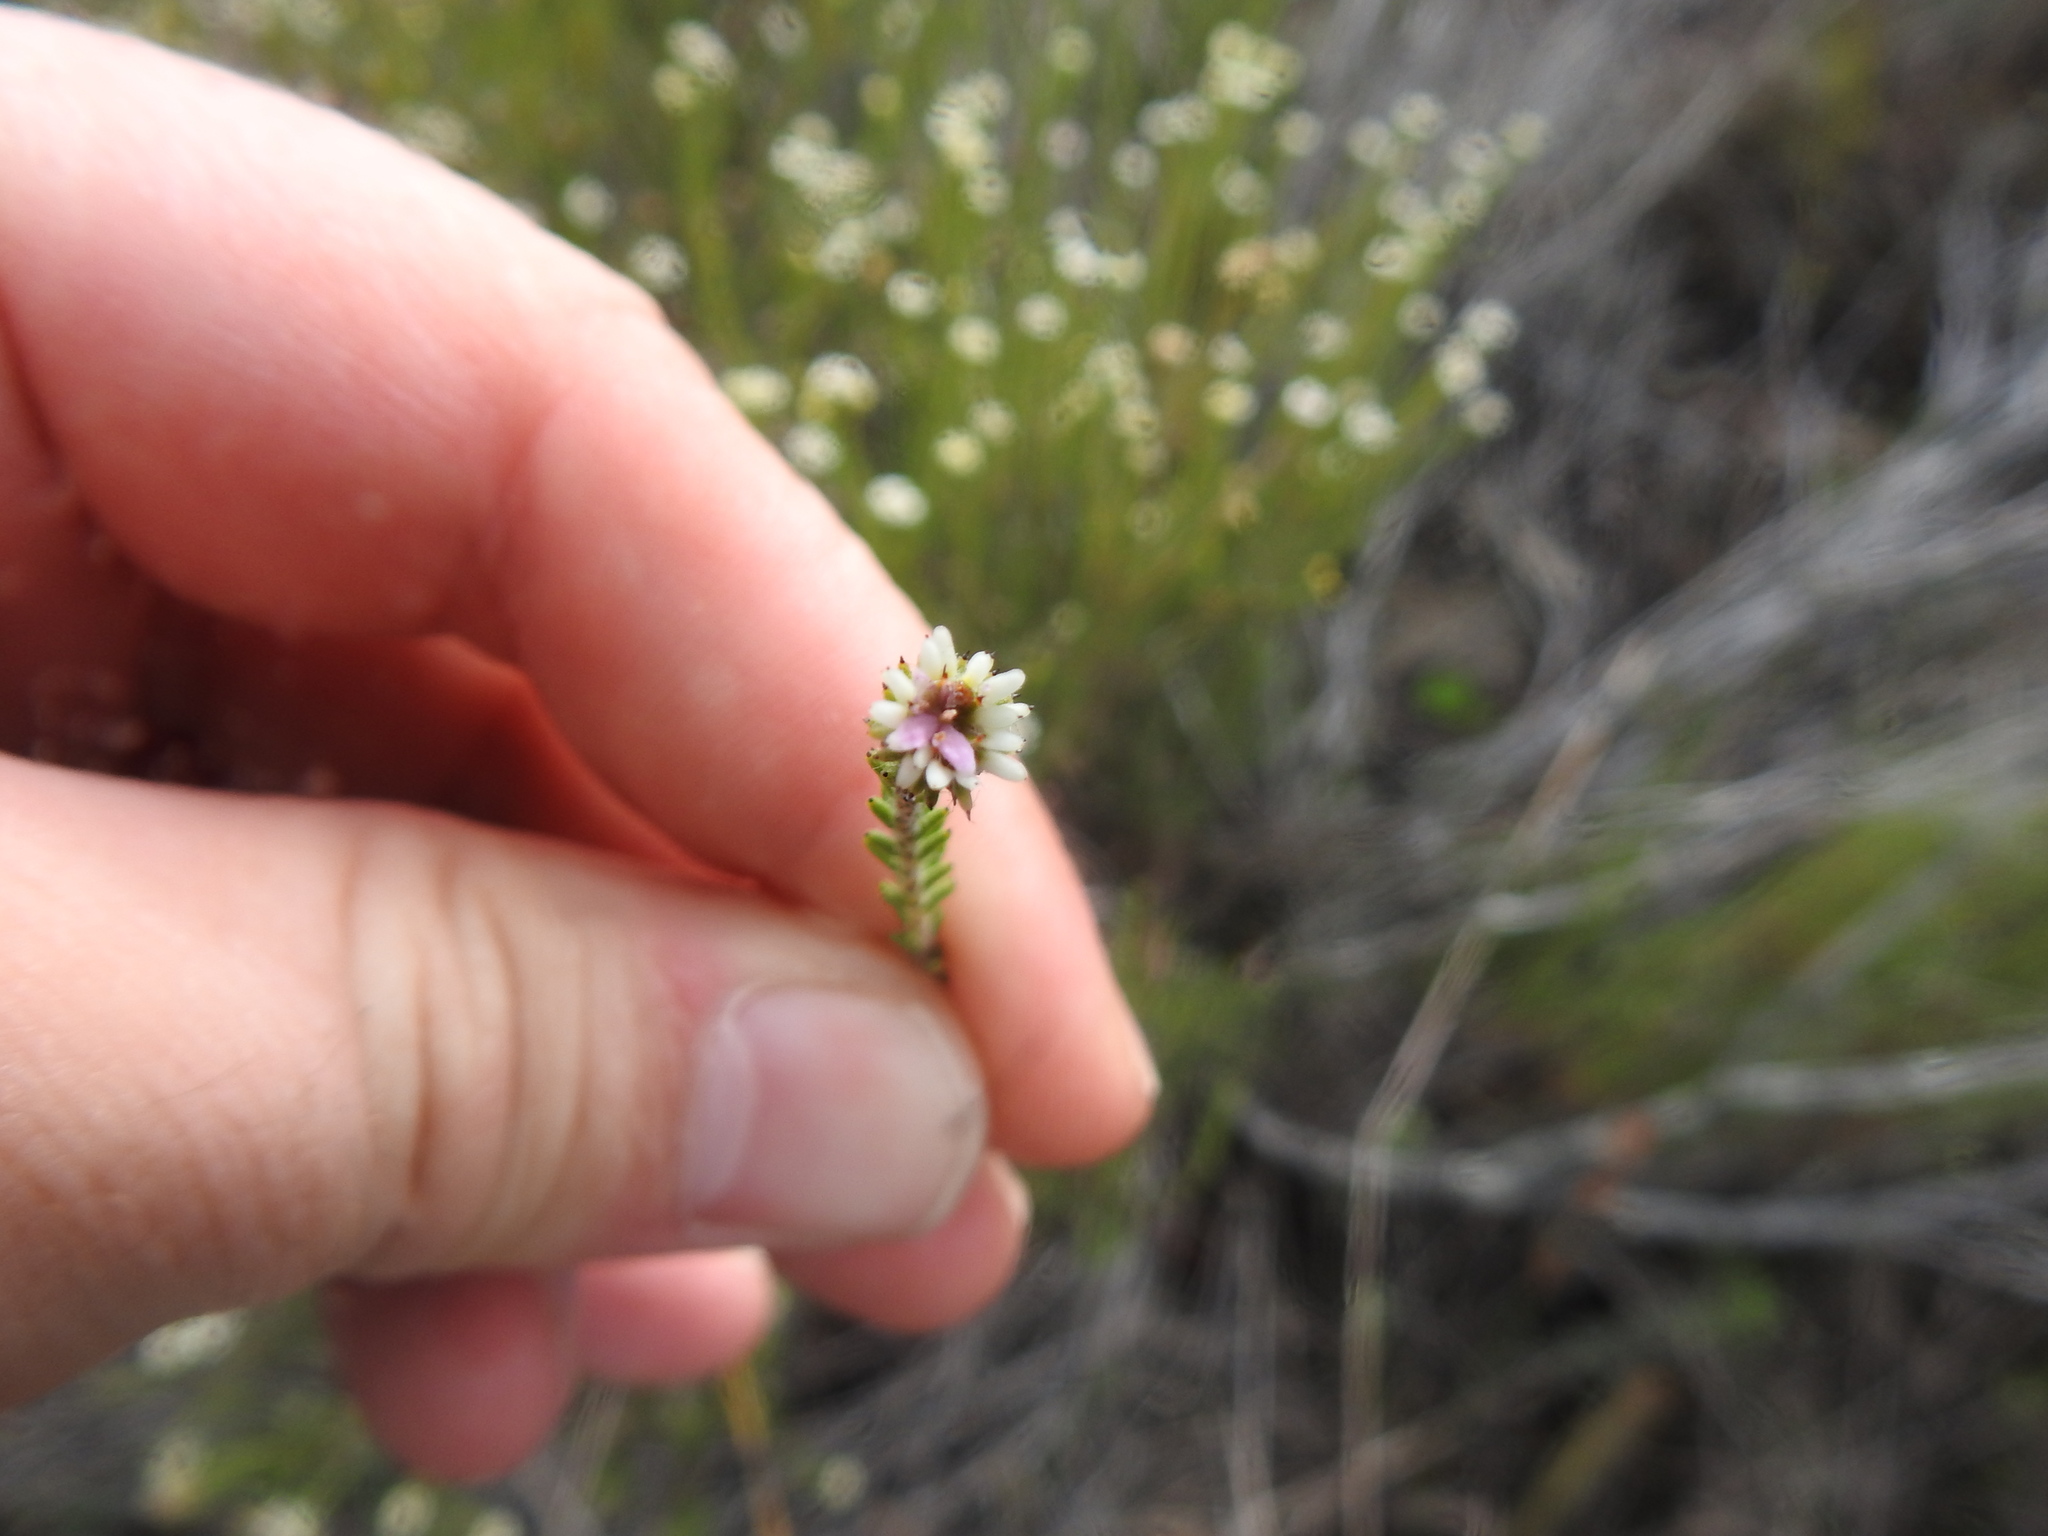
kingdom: Plantae
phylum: Tracheophyta
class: Magnoliopsida
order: Bruniales
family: Bruniaceae
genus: Staavia
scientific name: Staavia radiata
